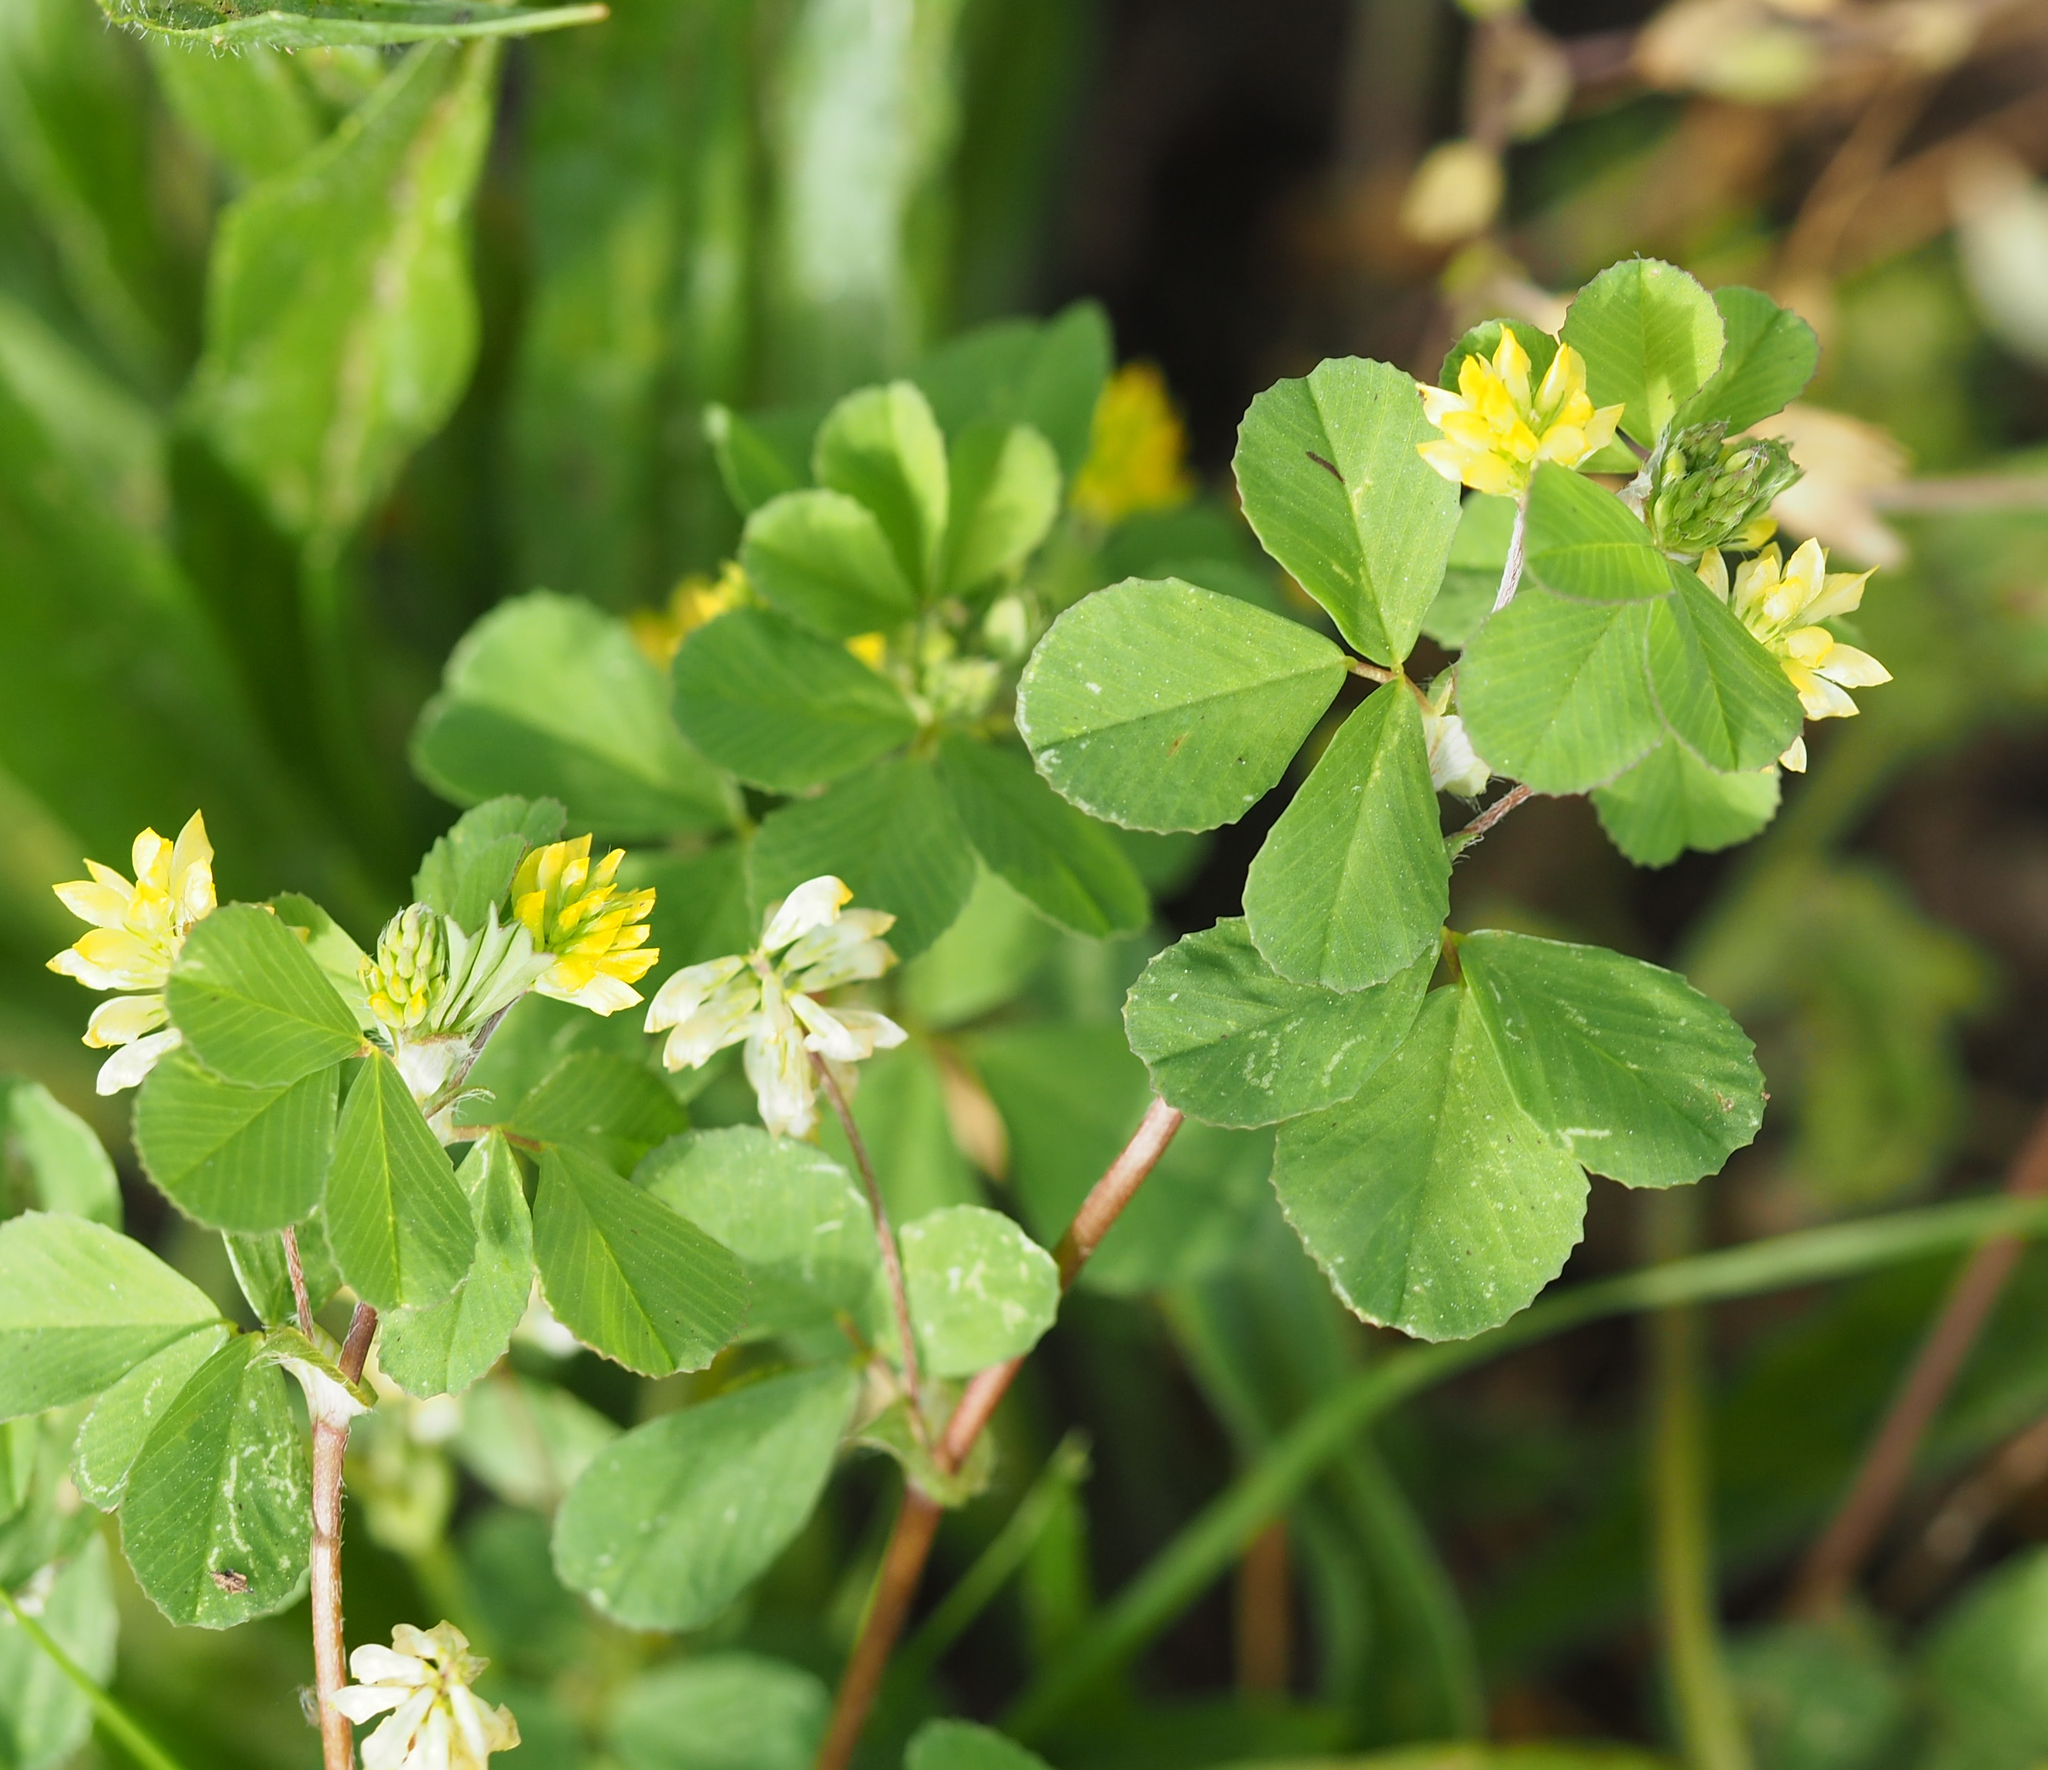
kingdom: Plantae
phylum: Tracheophyta
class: Magnoliopsida
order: Fabales
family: Fabaceae
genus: Trifolium
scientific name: Trifolium dubium
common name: Suckling clover
